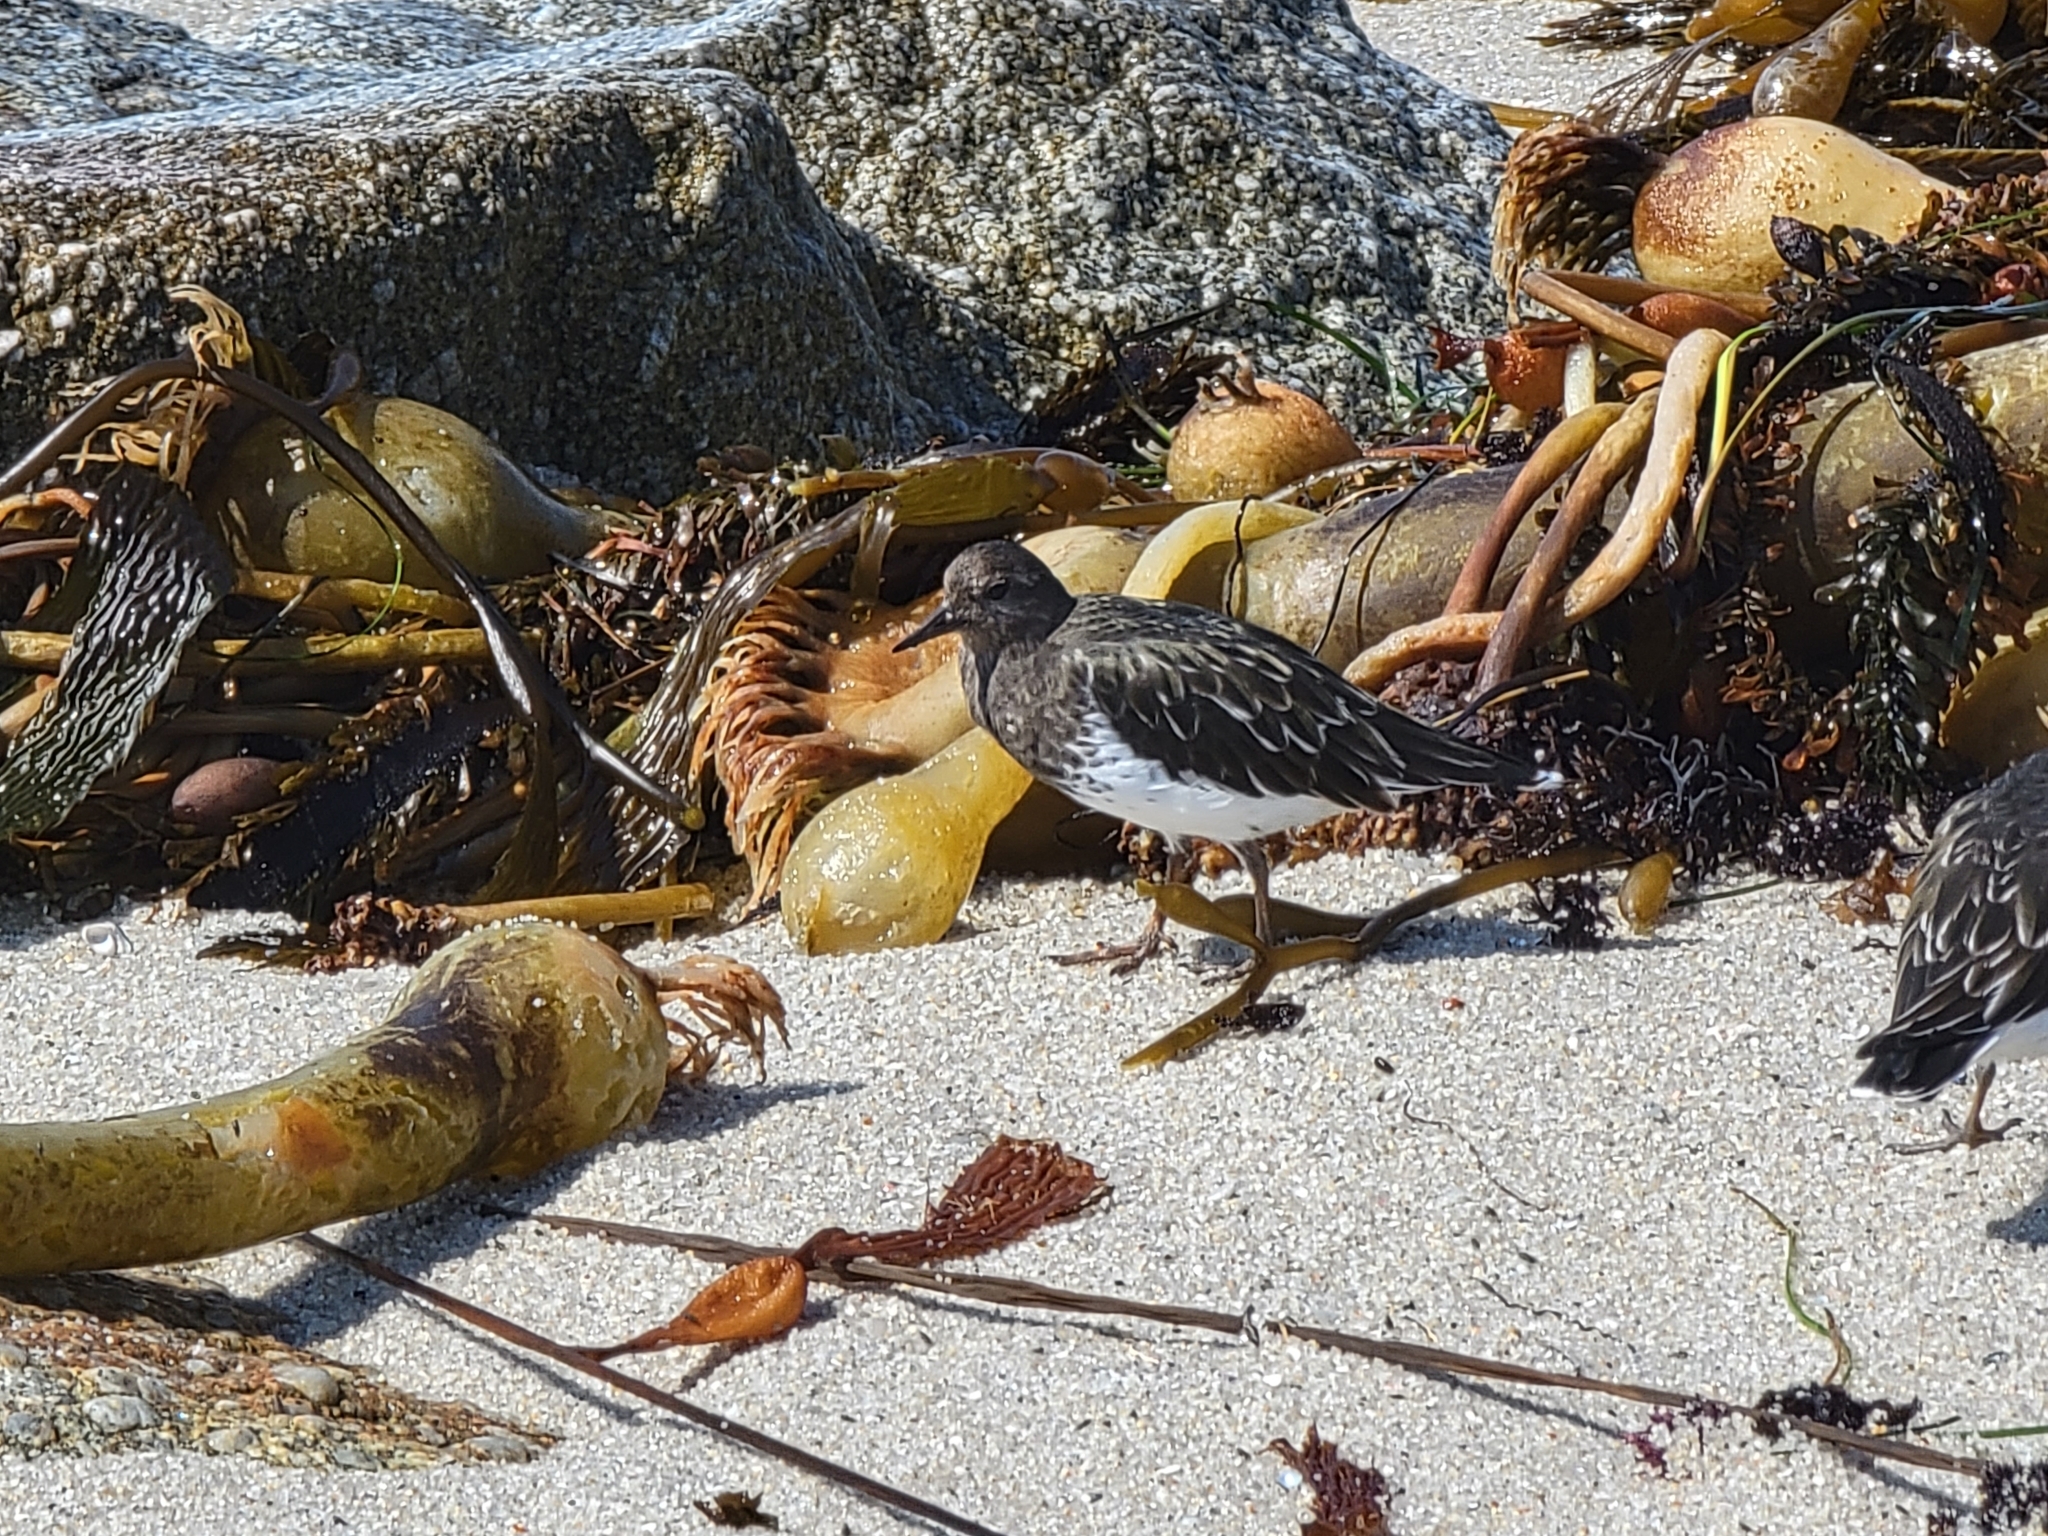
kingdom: Animalia
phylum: Chordata
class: Aves
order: Charadriiformes
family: Scolopacidae
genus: Arenaria
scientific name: Arenaria melanocephala
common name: Black turnstone
